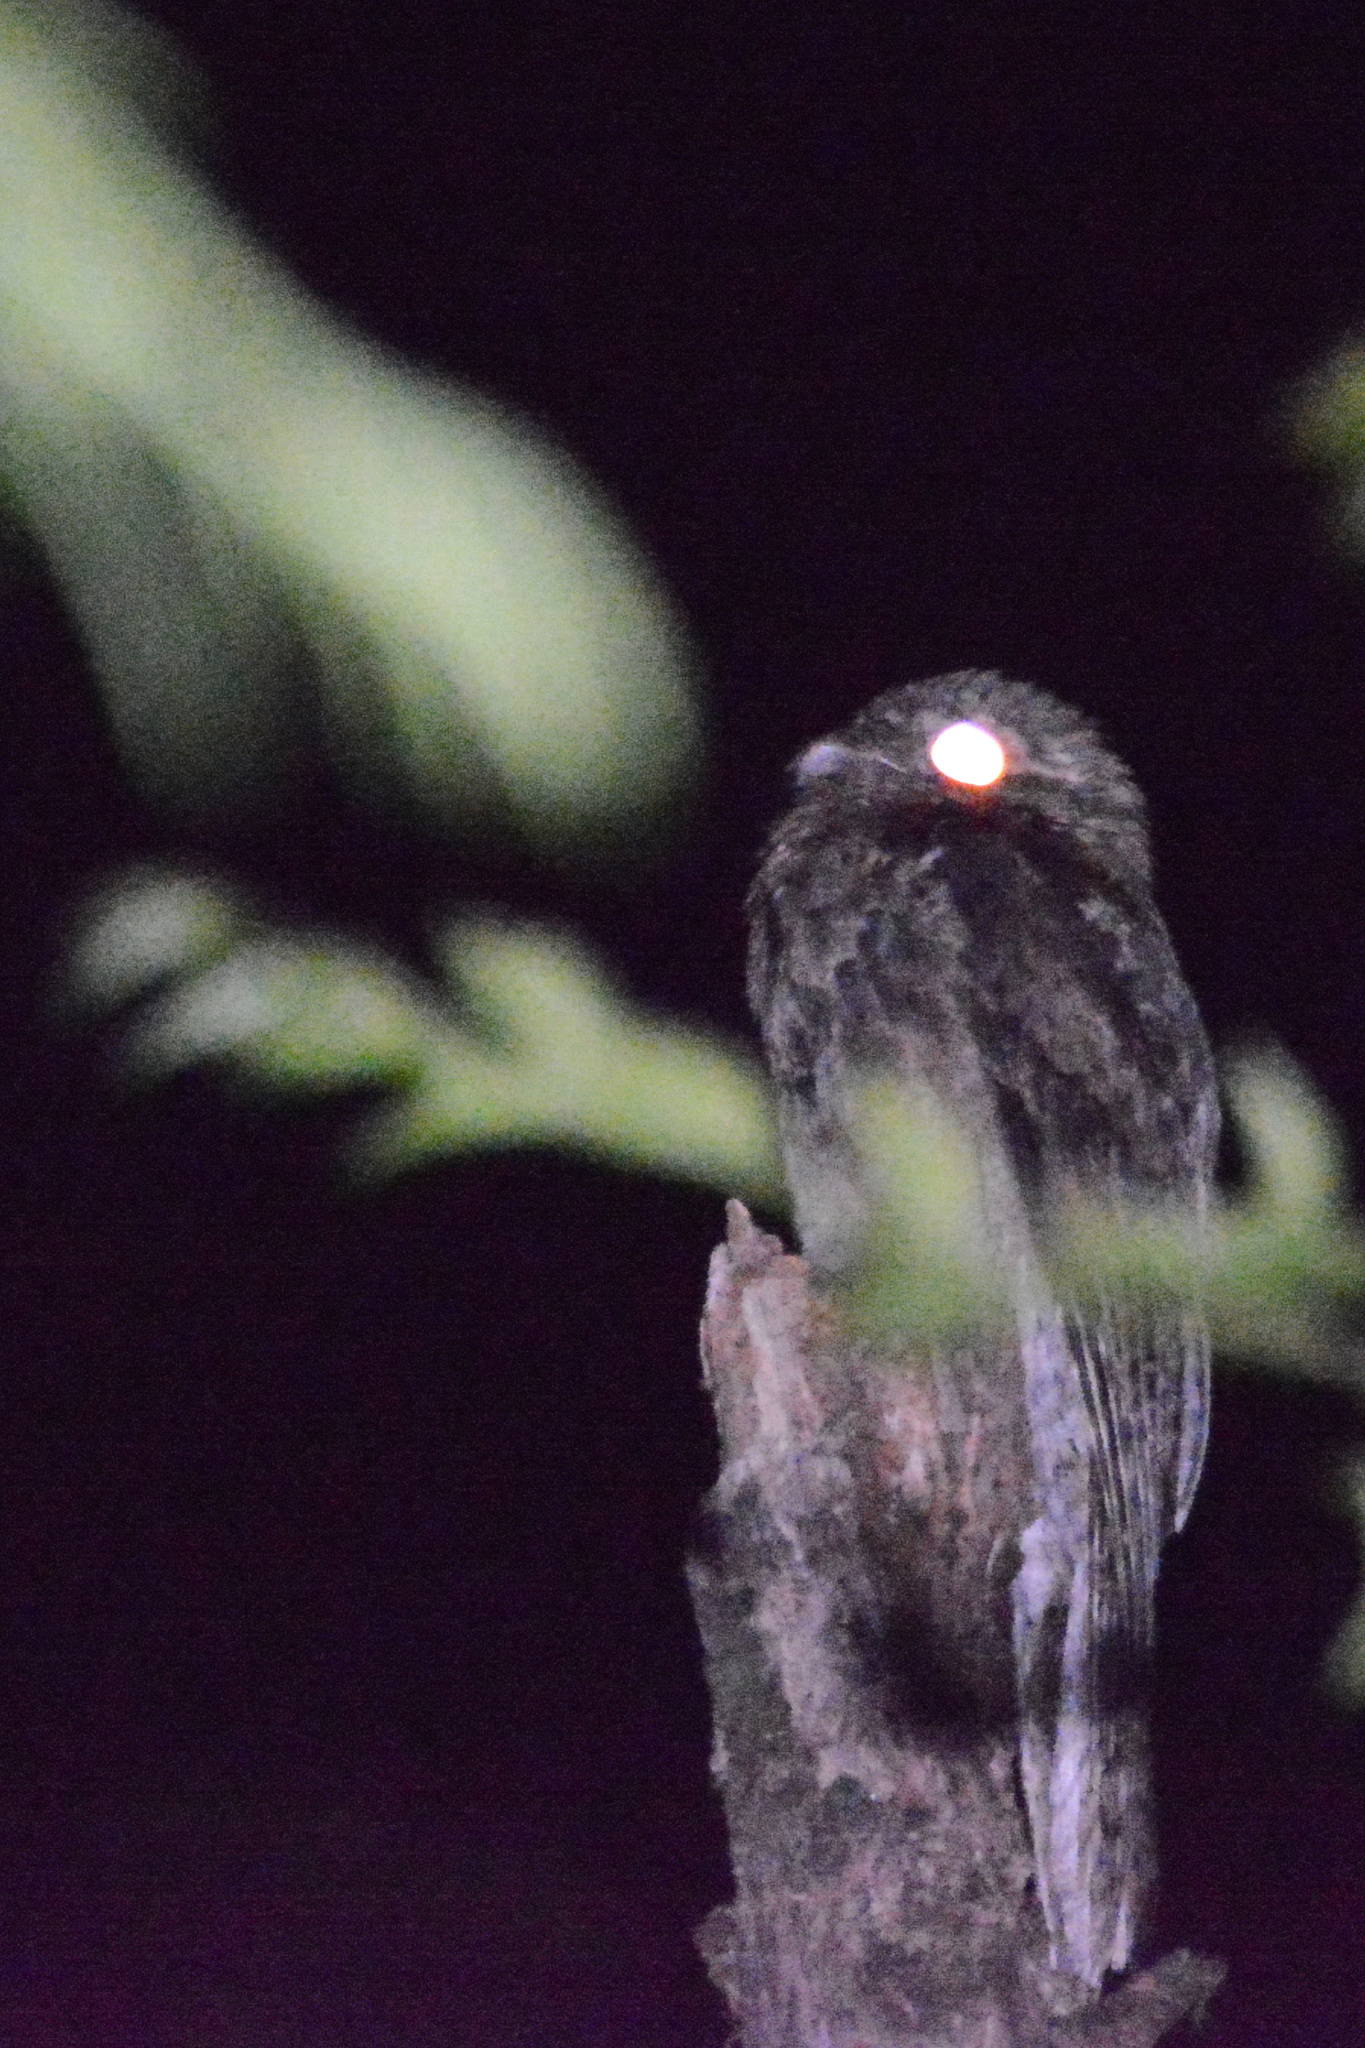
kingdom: Animalia
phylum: Chordata
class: Aves
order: Nyctibiiformes
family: Nyctibiidae
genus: Nyctibius
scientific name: Nyctibius griseus
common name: Common potoo
